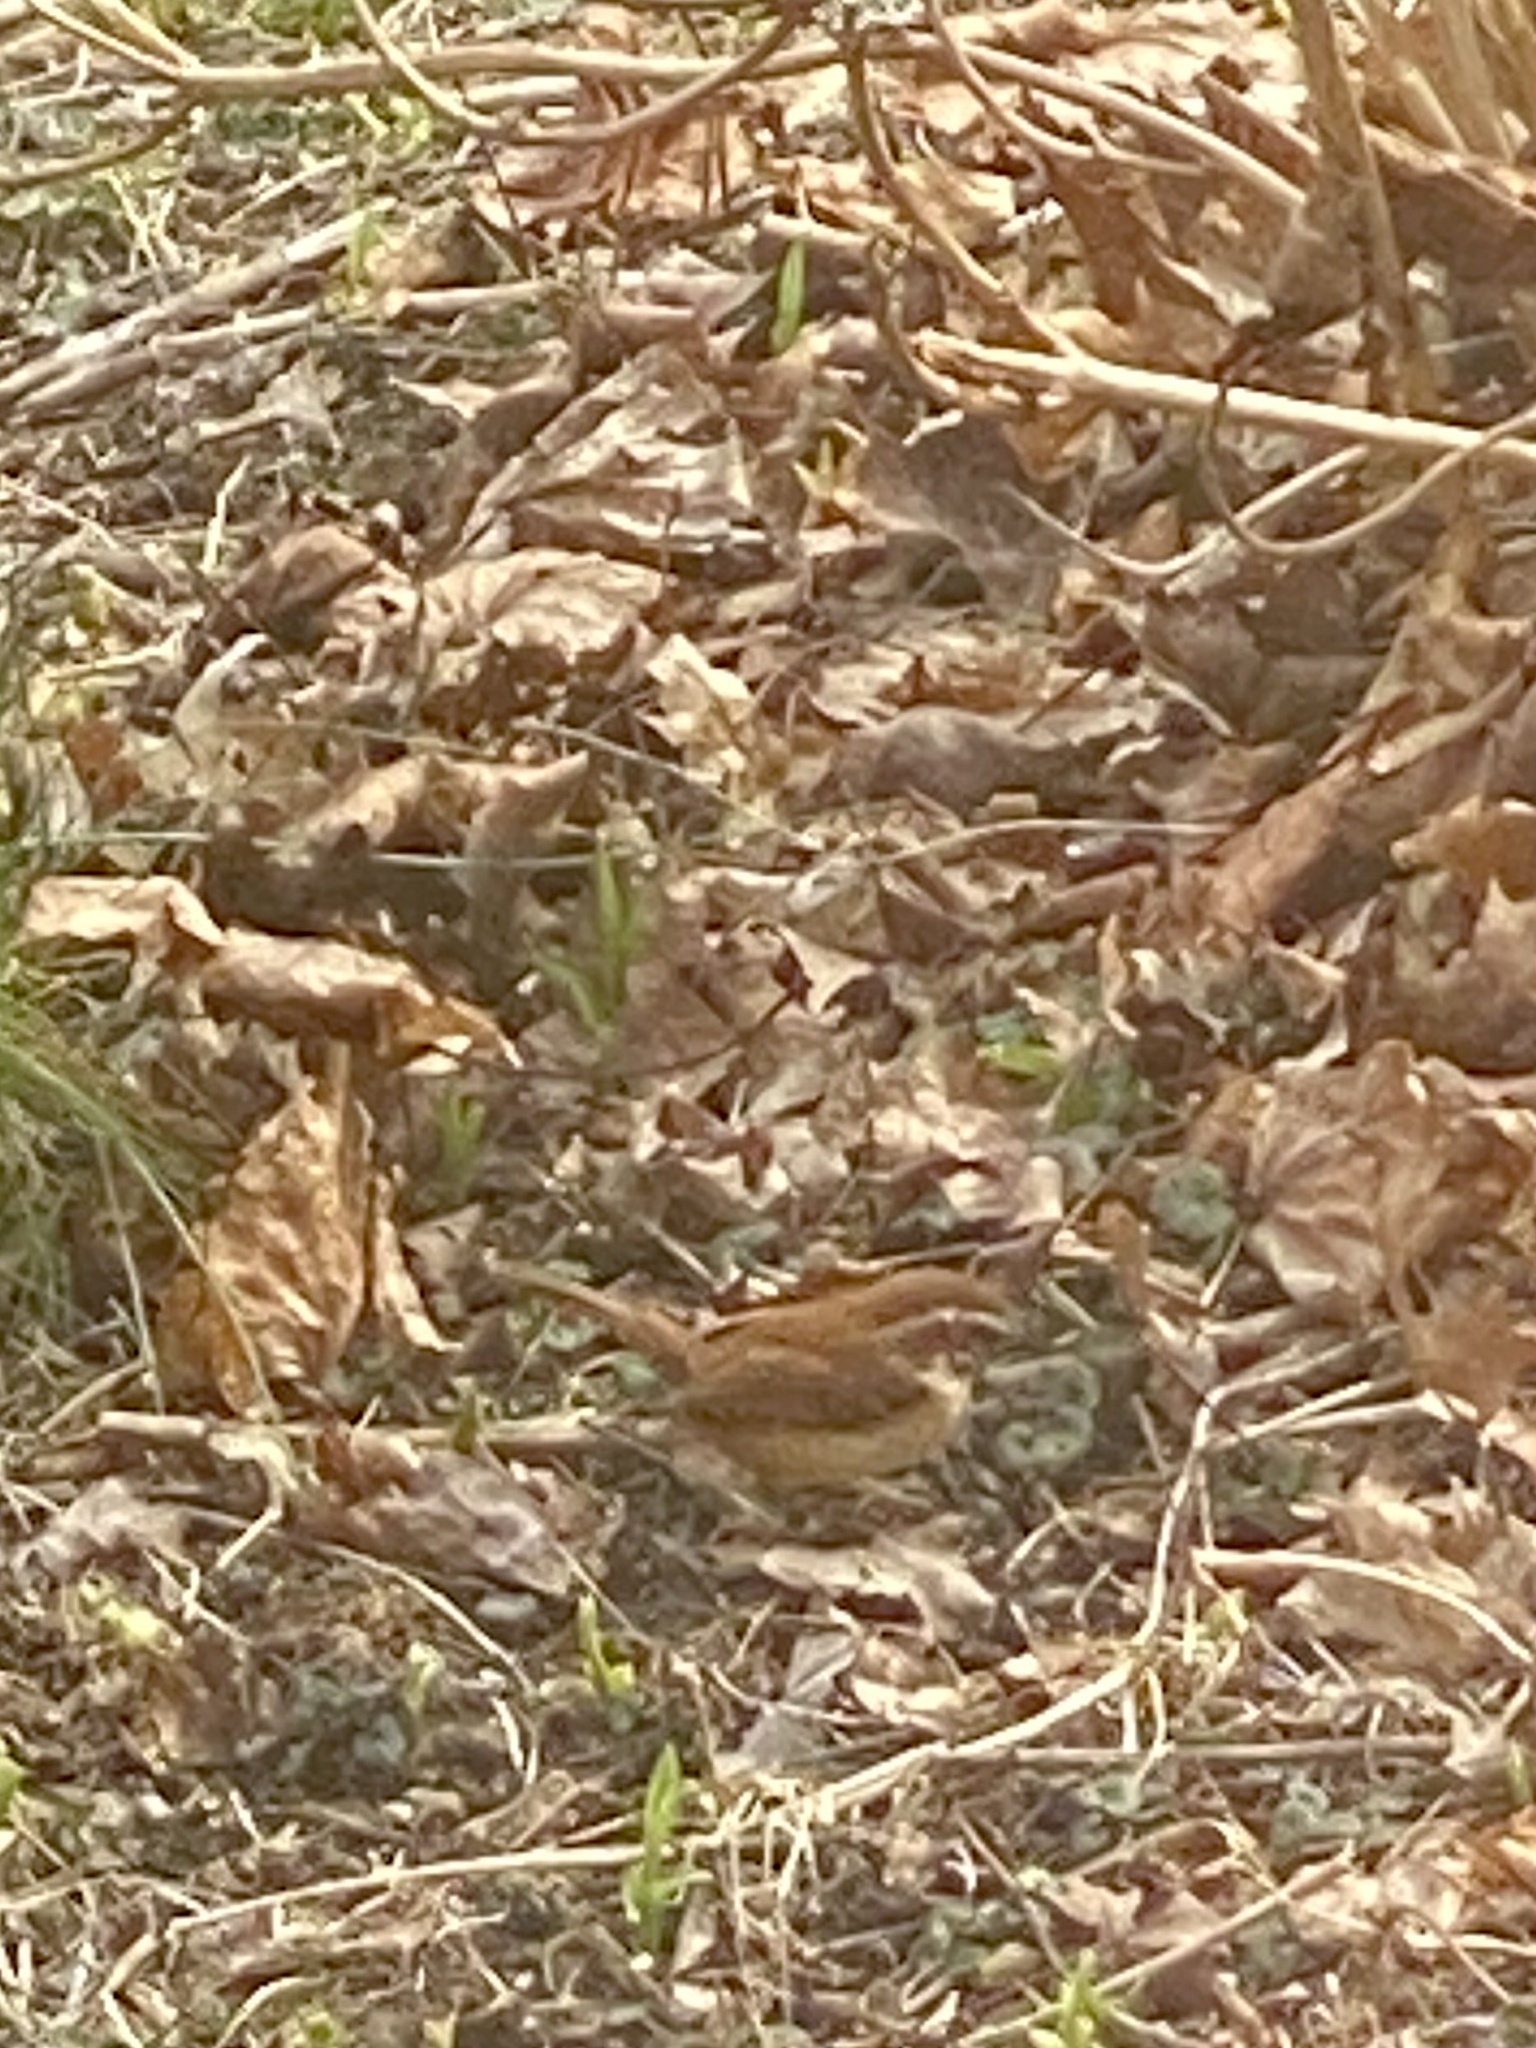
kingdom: Animalia
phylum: Chordata
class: Aves
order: Passeriformes
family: Troglodytidae
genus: Thryothorus
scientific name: Thryothorus ludovicianus
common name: Carolina wren
